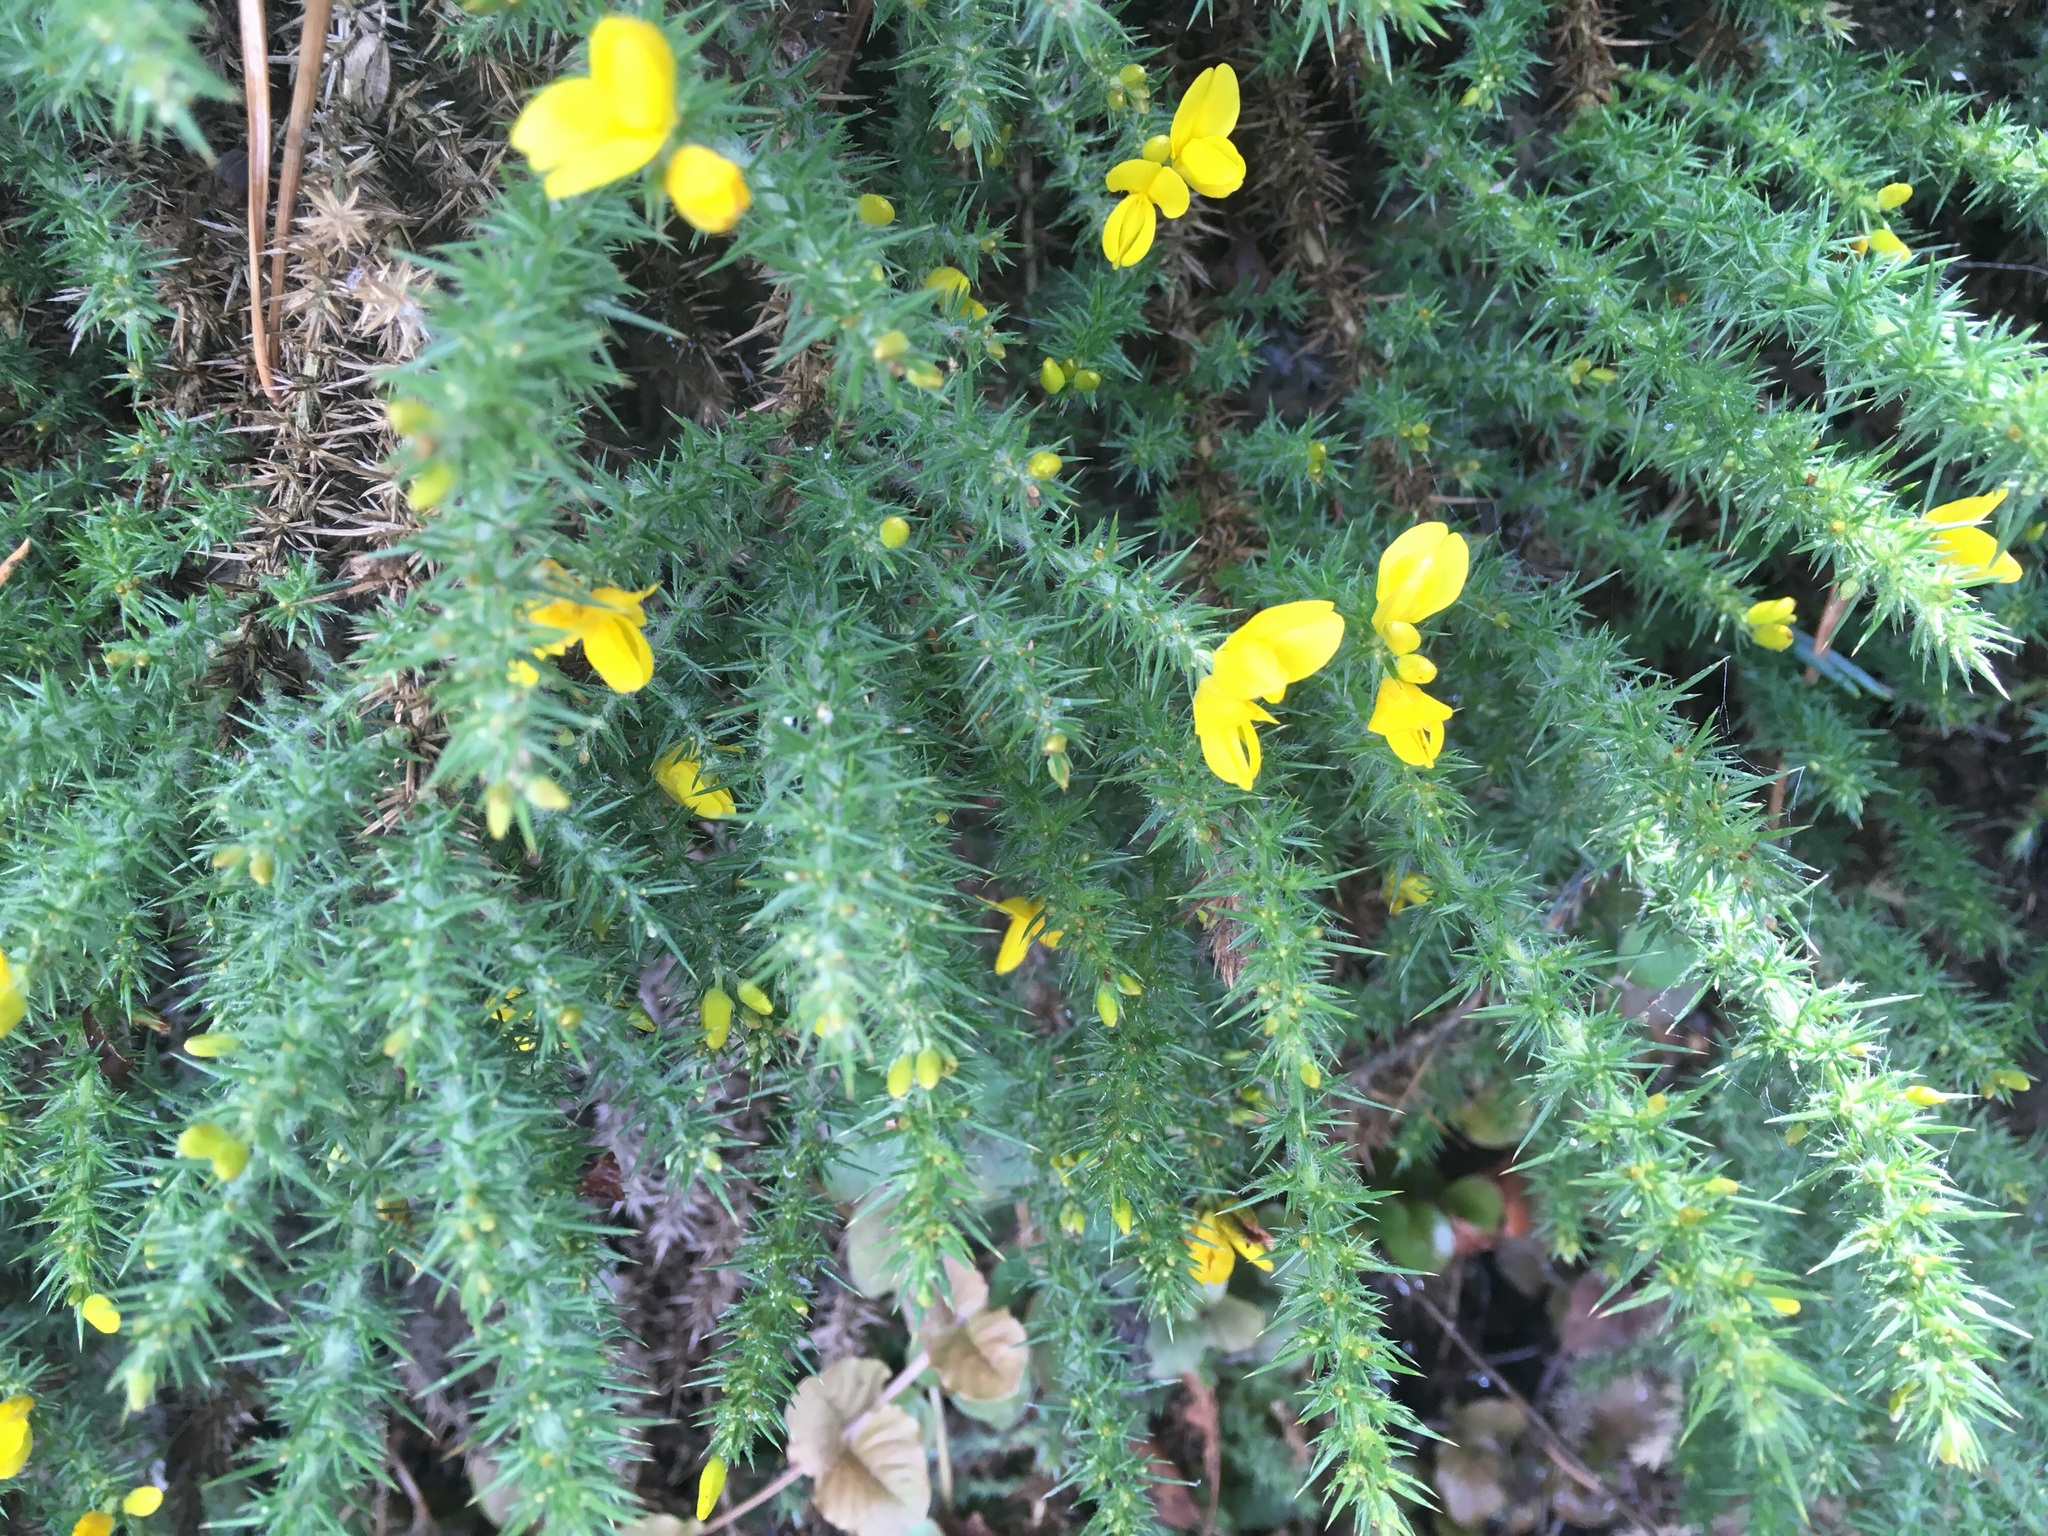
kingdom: Plantae
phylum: Tracheophyta
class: Magnoliopsida
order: Fabales
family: Fabaceae
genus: Ulex
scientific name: Ulex europaeus
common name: Common gorse
